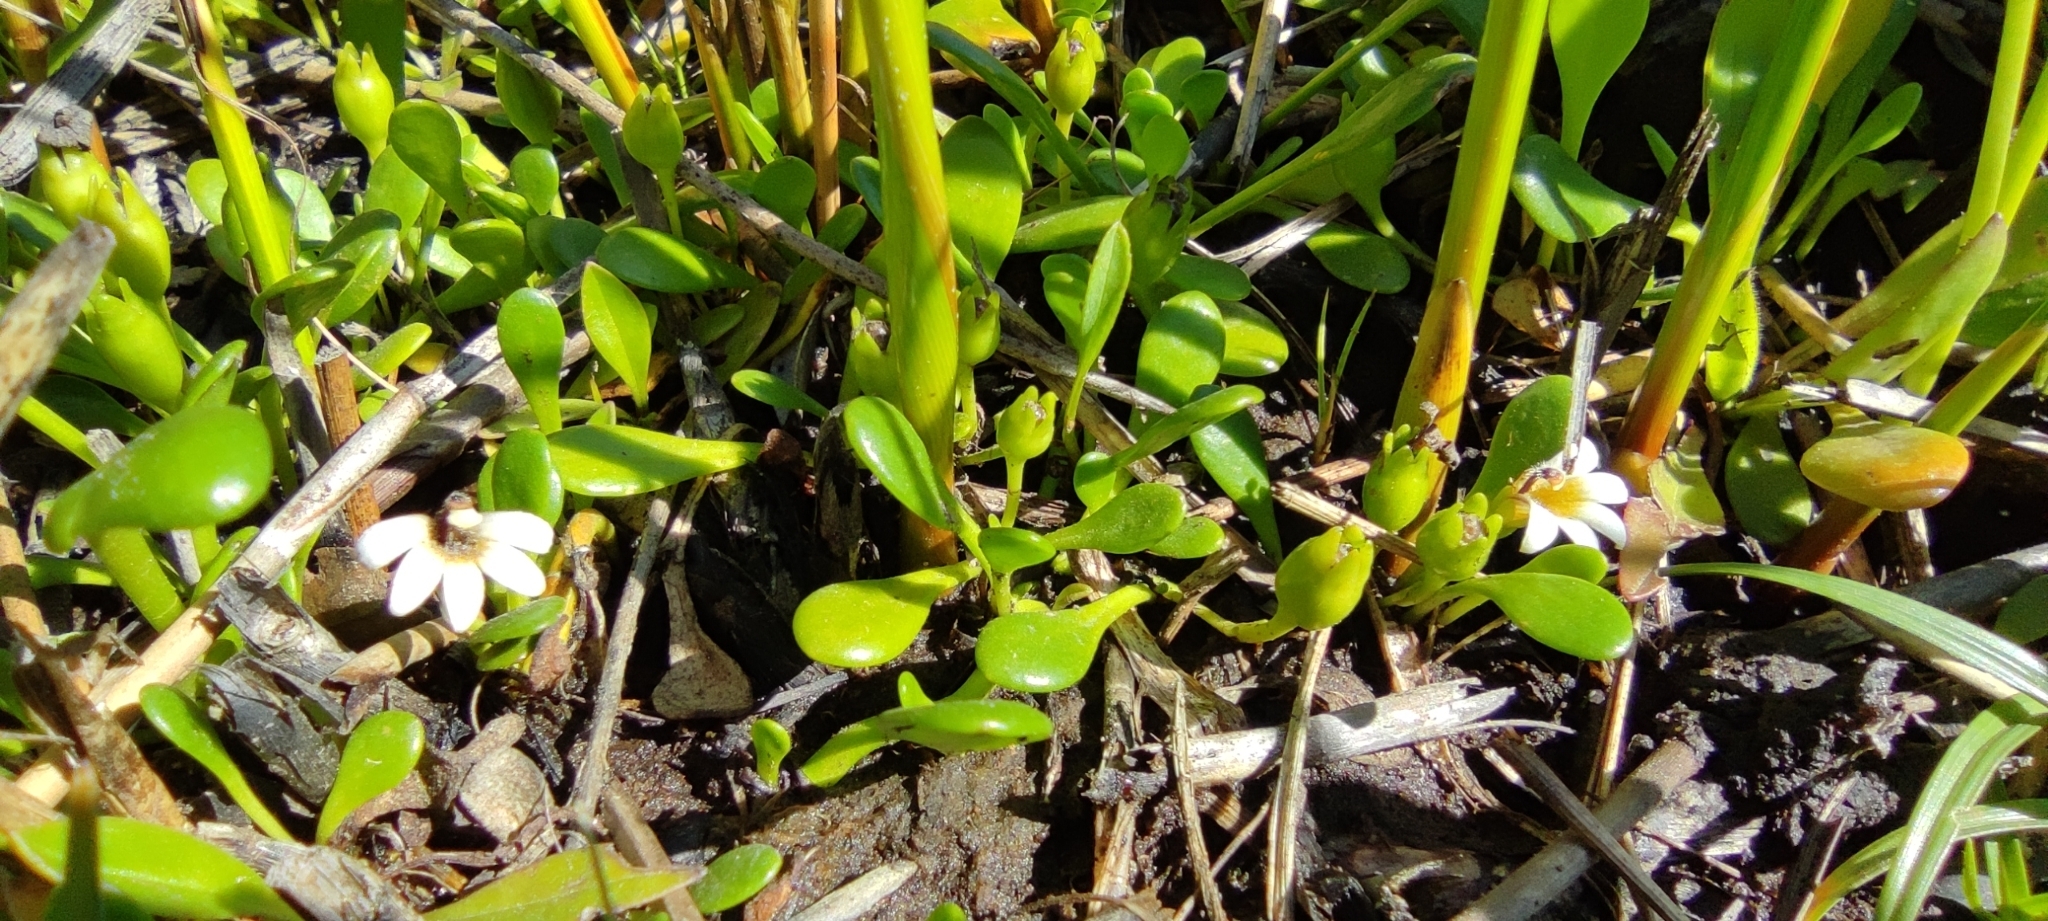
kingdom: Plantae
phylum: Tracheophyta
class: Magnoliopsida
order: Asterales
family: Goodeniaceae
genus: Goodenia
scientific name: Goodenia radicans
